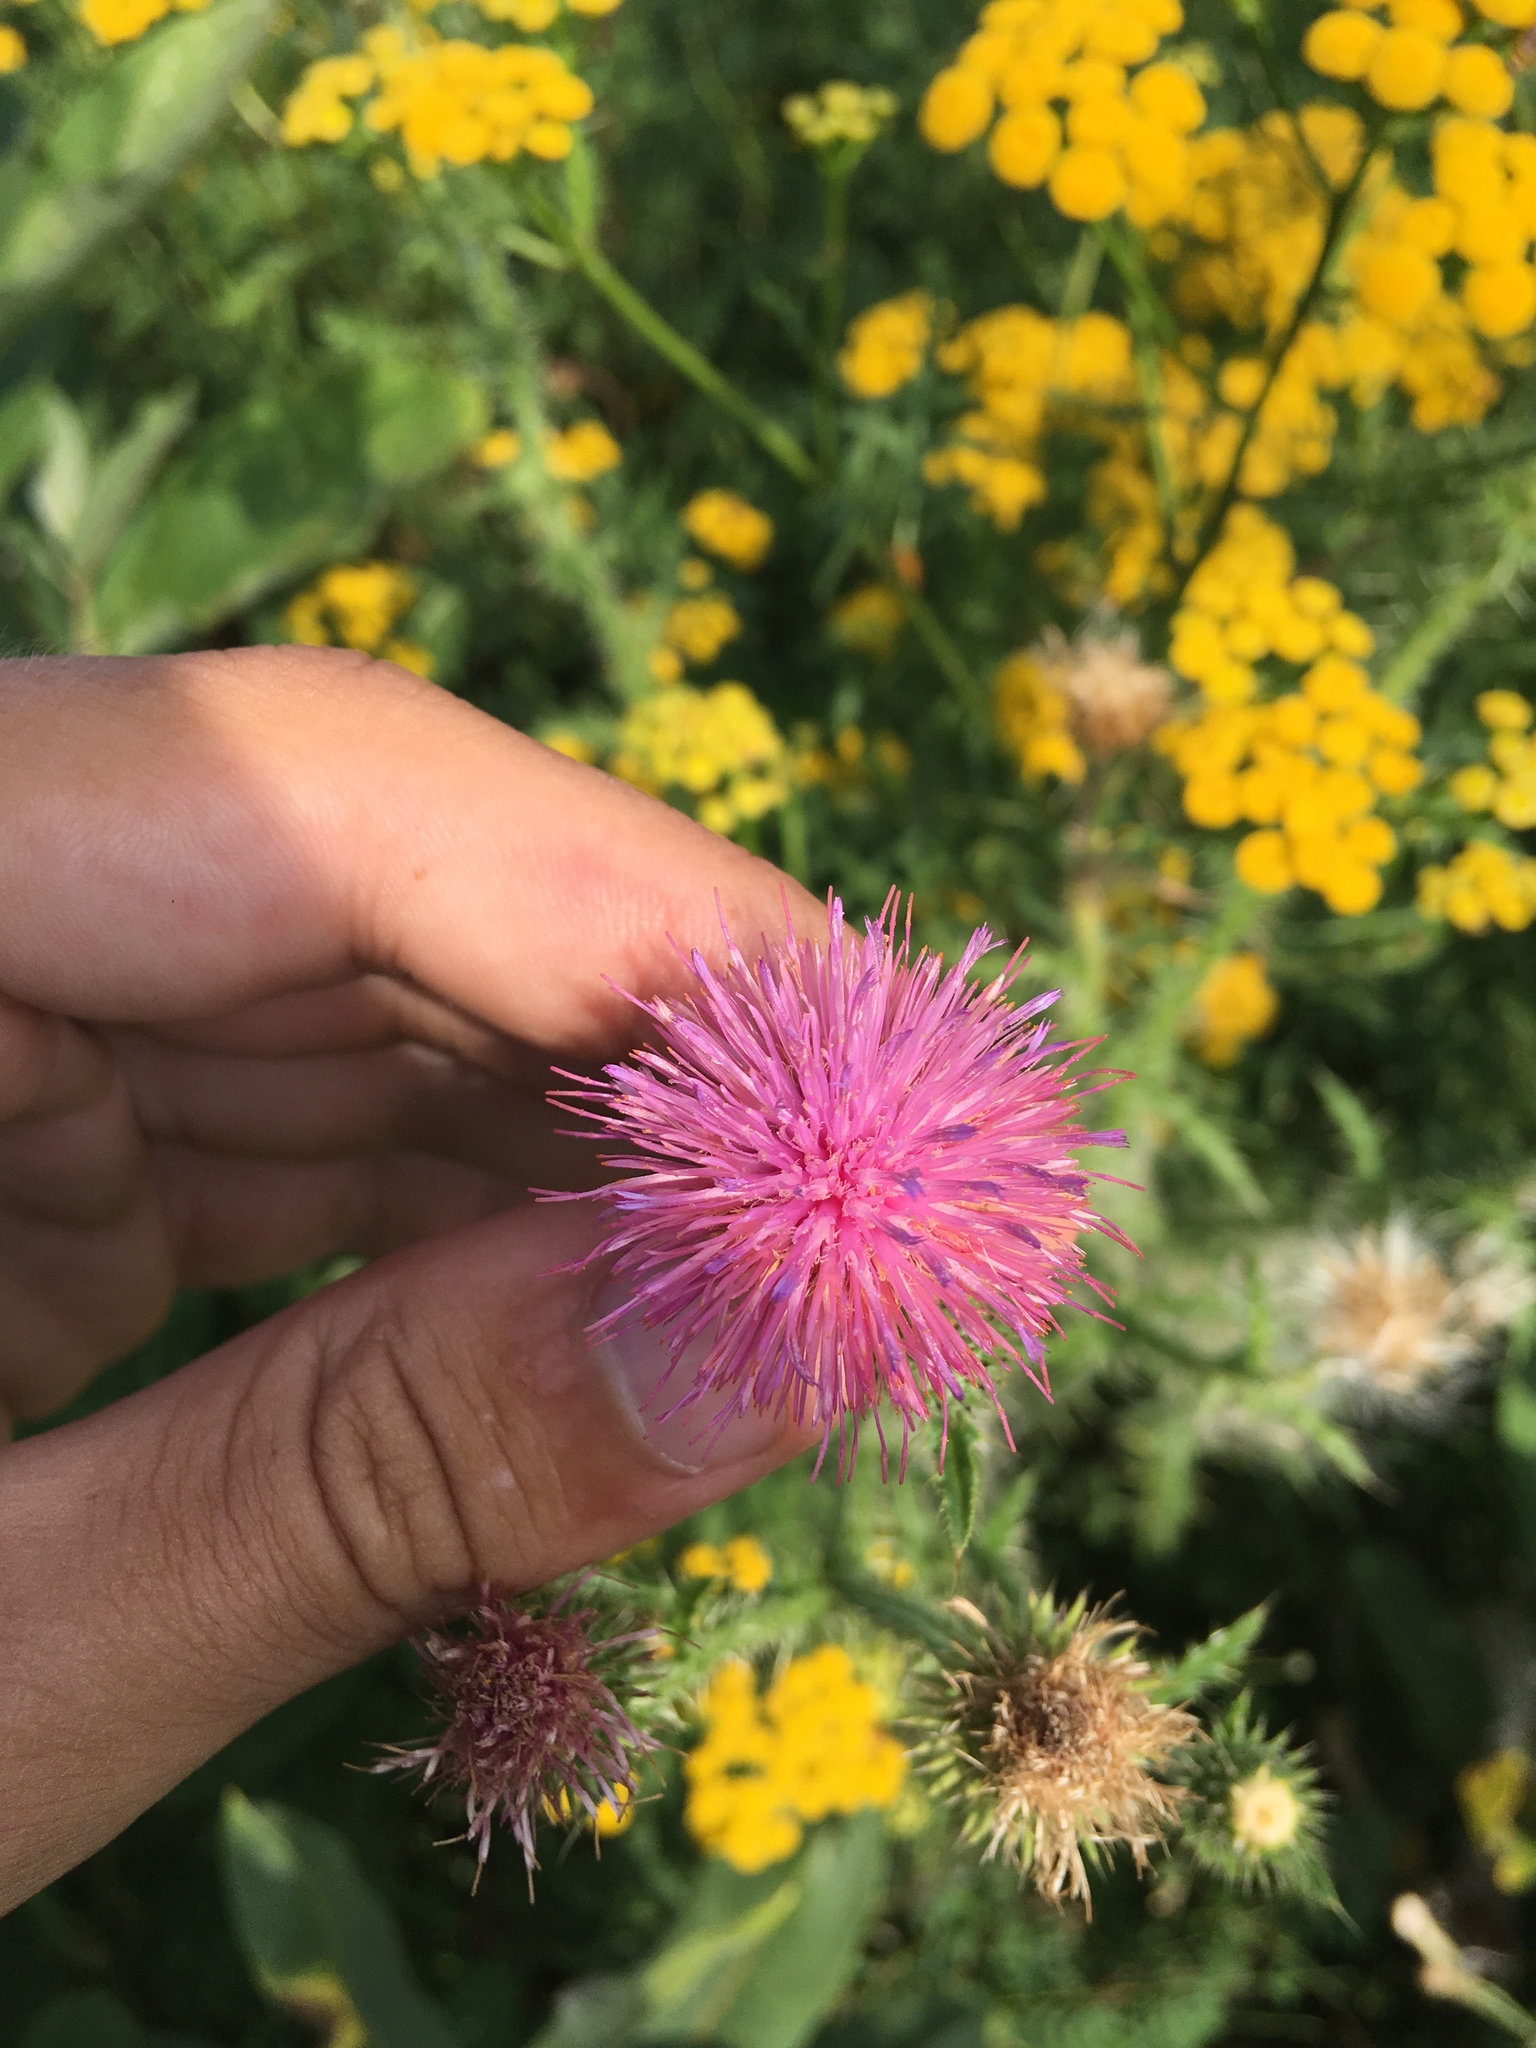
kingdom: Plantae
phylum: Tracheophyta
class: Magnoliopsida
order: Asterales
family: Asteraceae
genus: Carduus
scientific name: Carduus acanthoides
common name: Plumeless thistle
